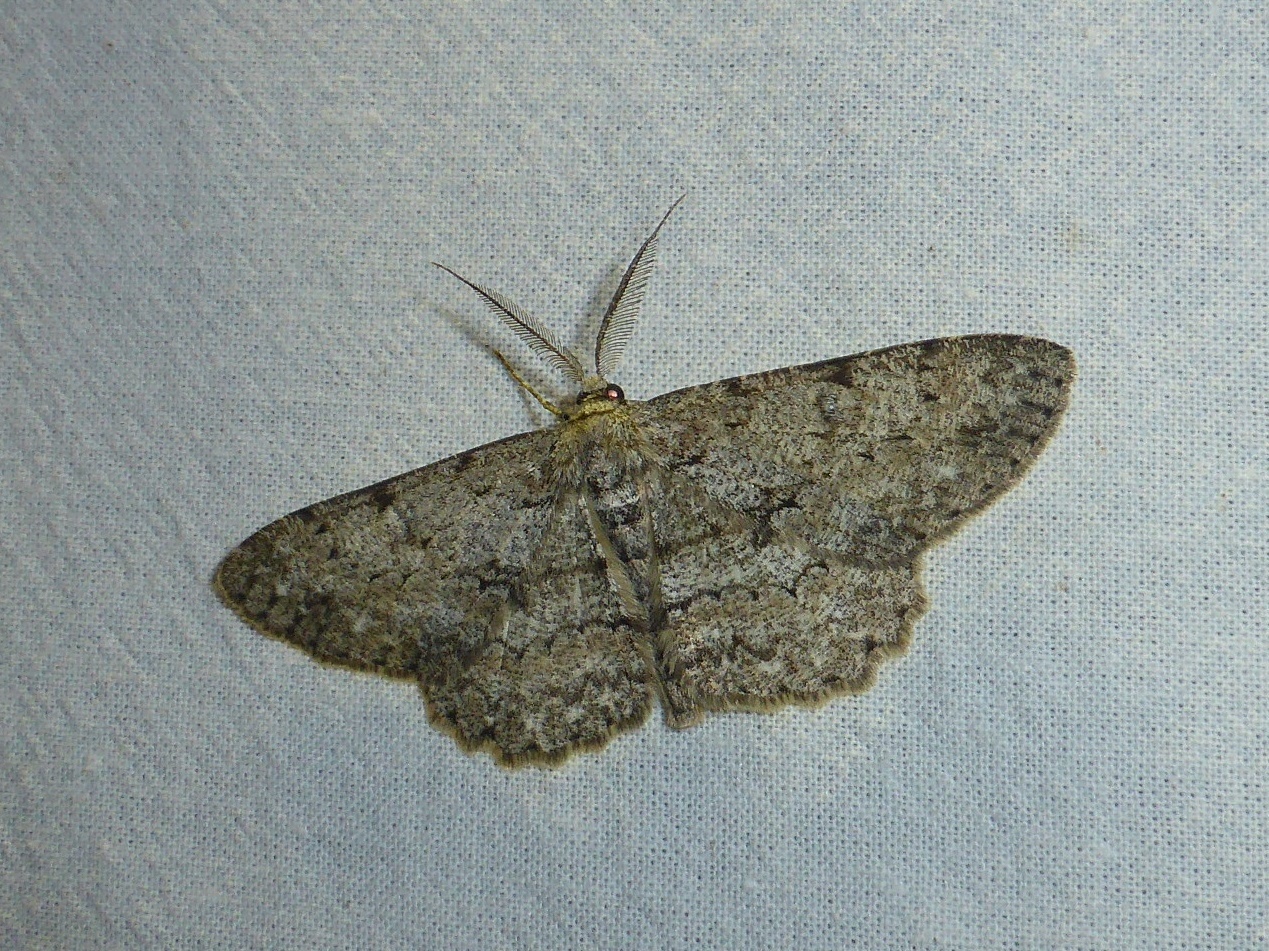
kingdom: Animalia
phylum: Arthropoda
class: Insecta
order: Lepidoptera
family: Geometridae
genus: Hypomecis
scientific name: Hypomecis punctinalis
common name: Pale oak beauty
